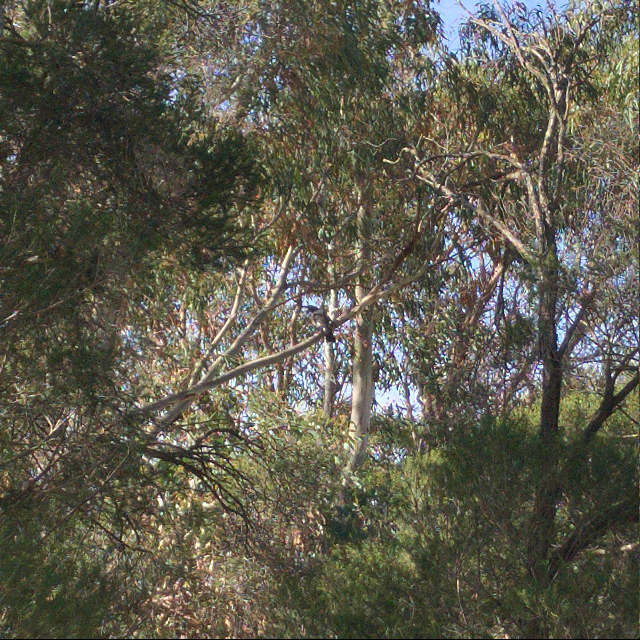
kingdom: Animalia
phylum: Chordata
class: Aves
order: Passeriformes
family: Cracticidae
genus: Strepera
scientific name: Strepera graculina
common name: Pied currawong
